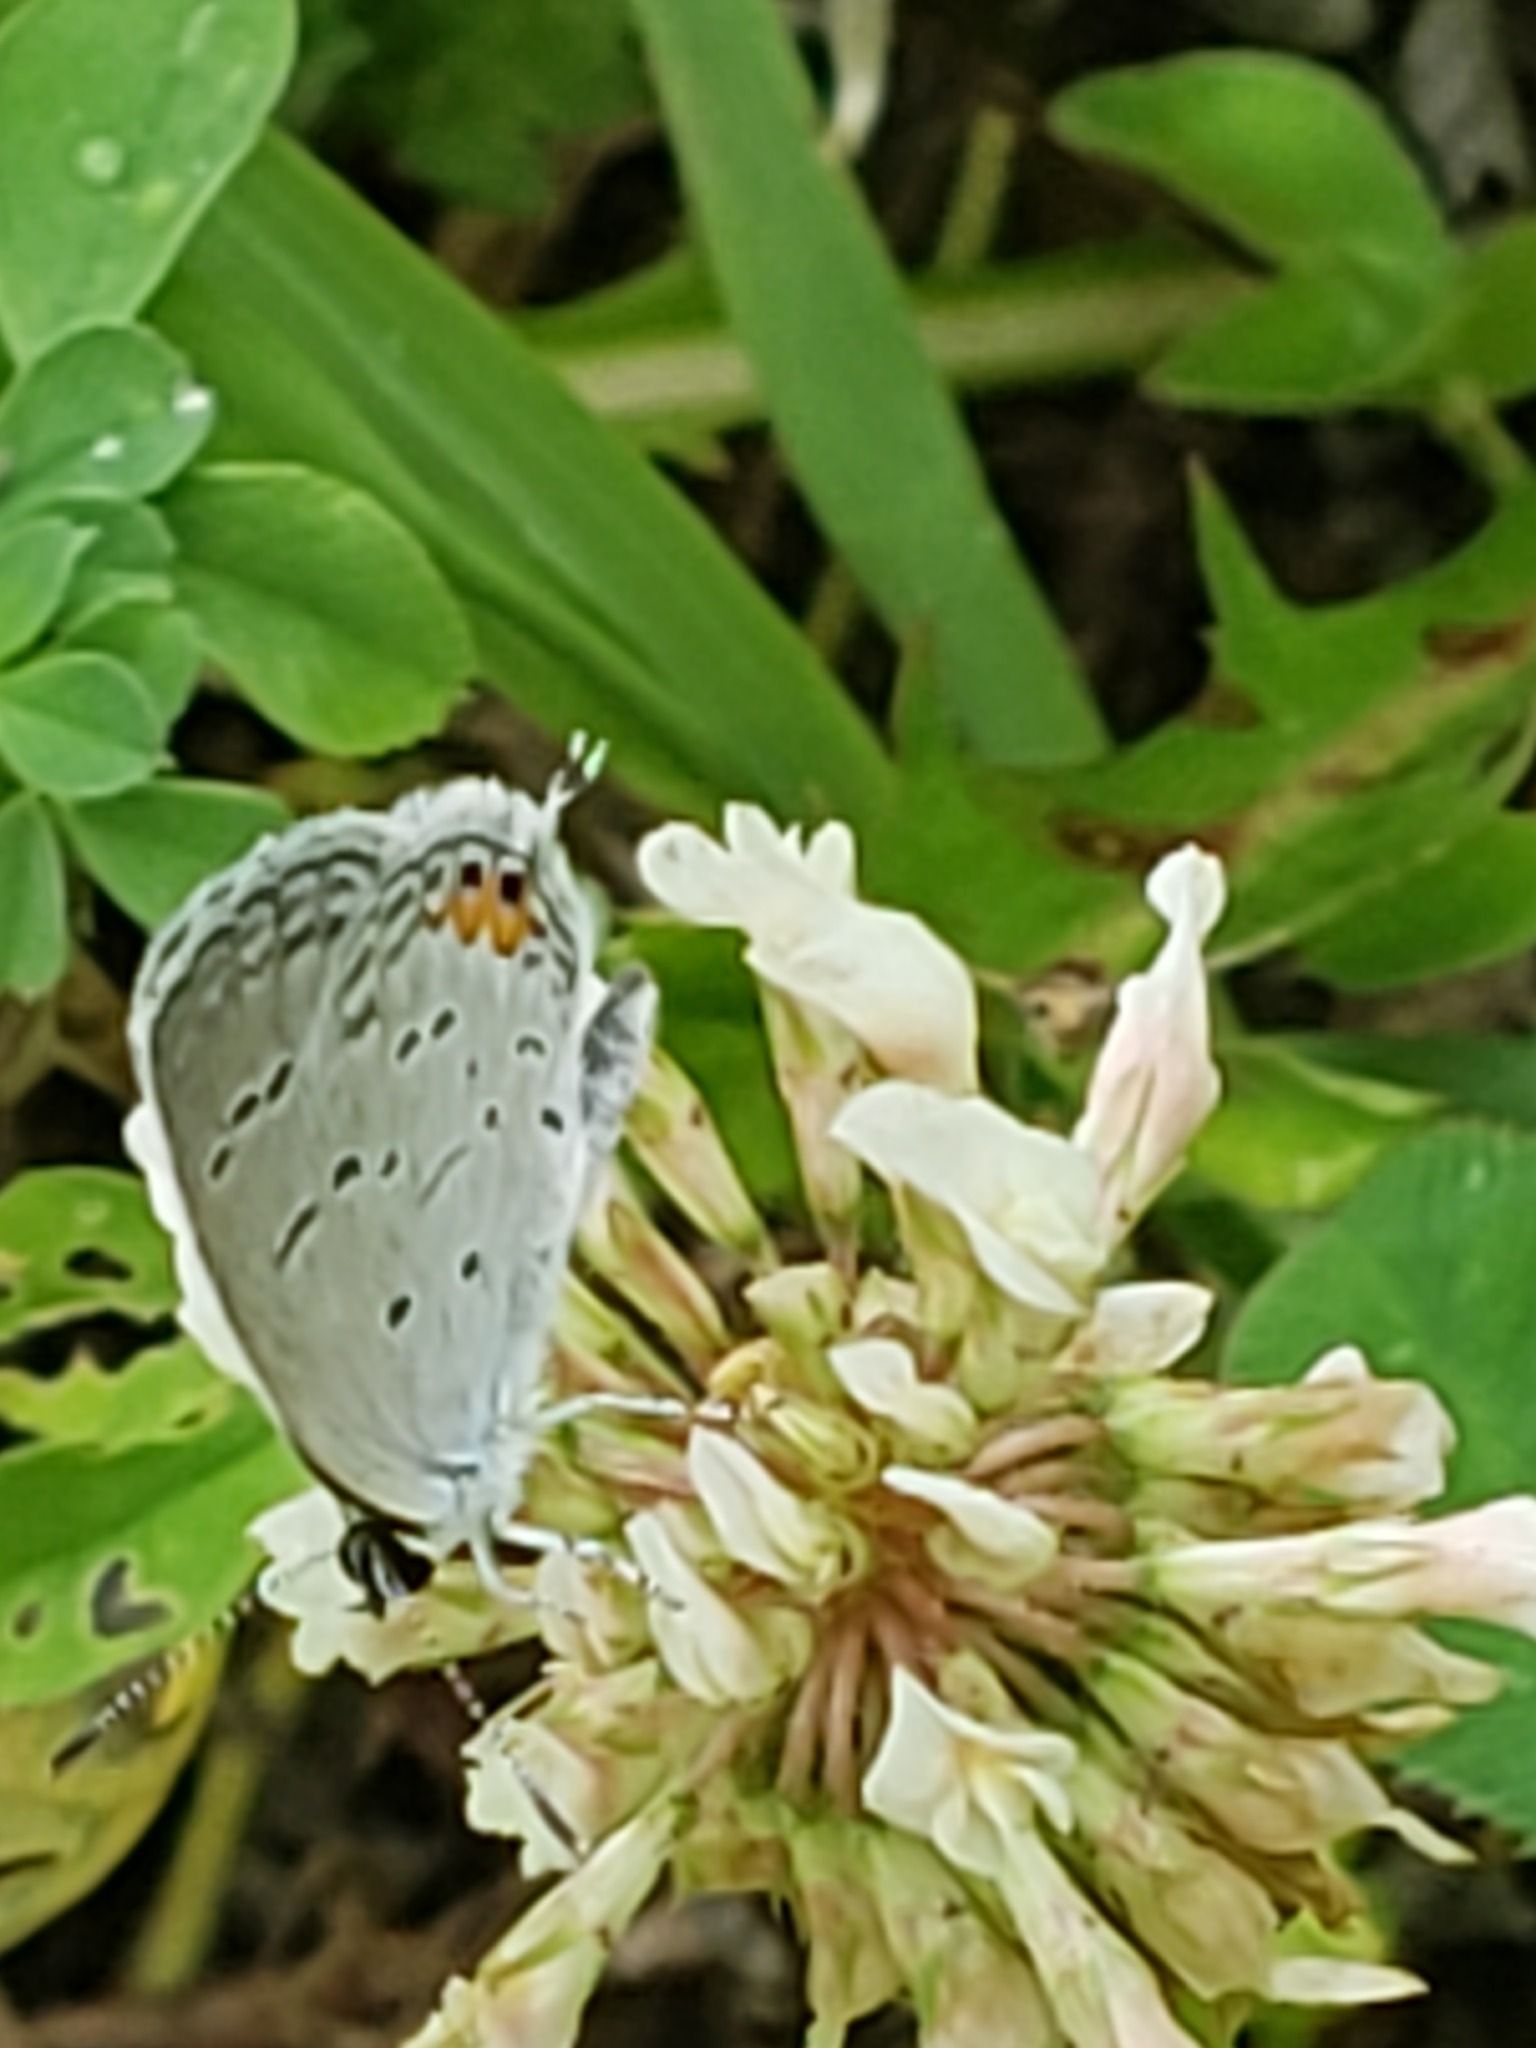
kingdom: Animalia
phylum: Arthropoda
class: Insecta
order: Lepidoptera
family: Lycaenidae
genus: Elkalyce
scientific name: Elkalyce comyntas
